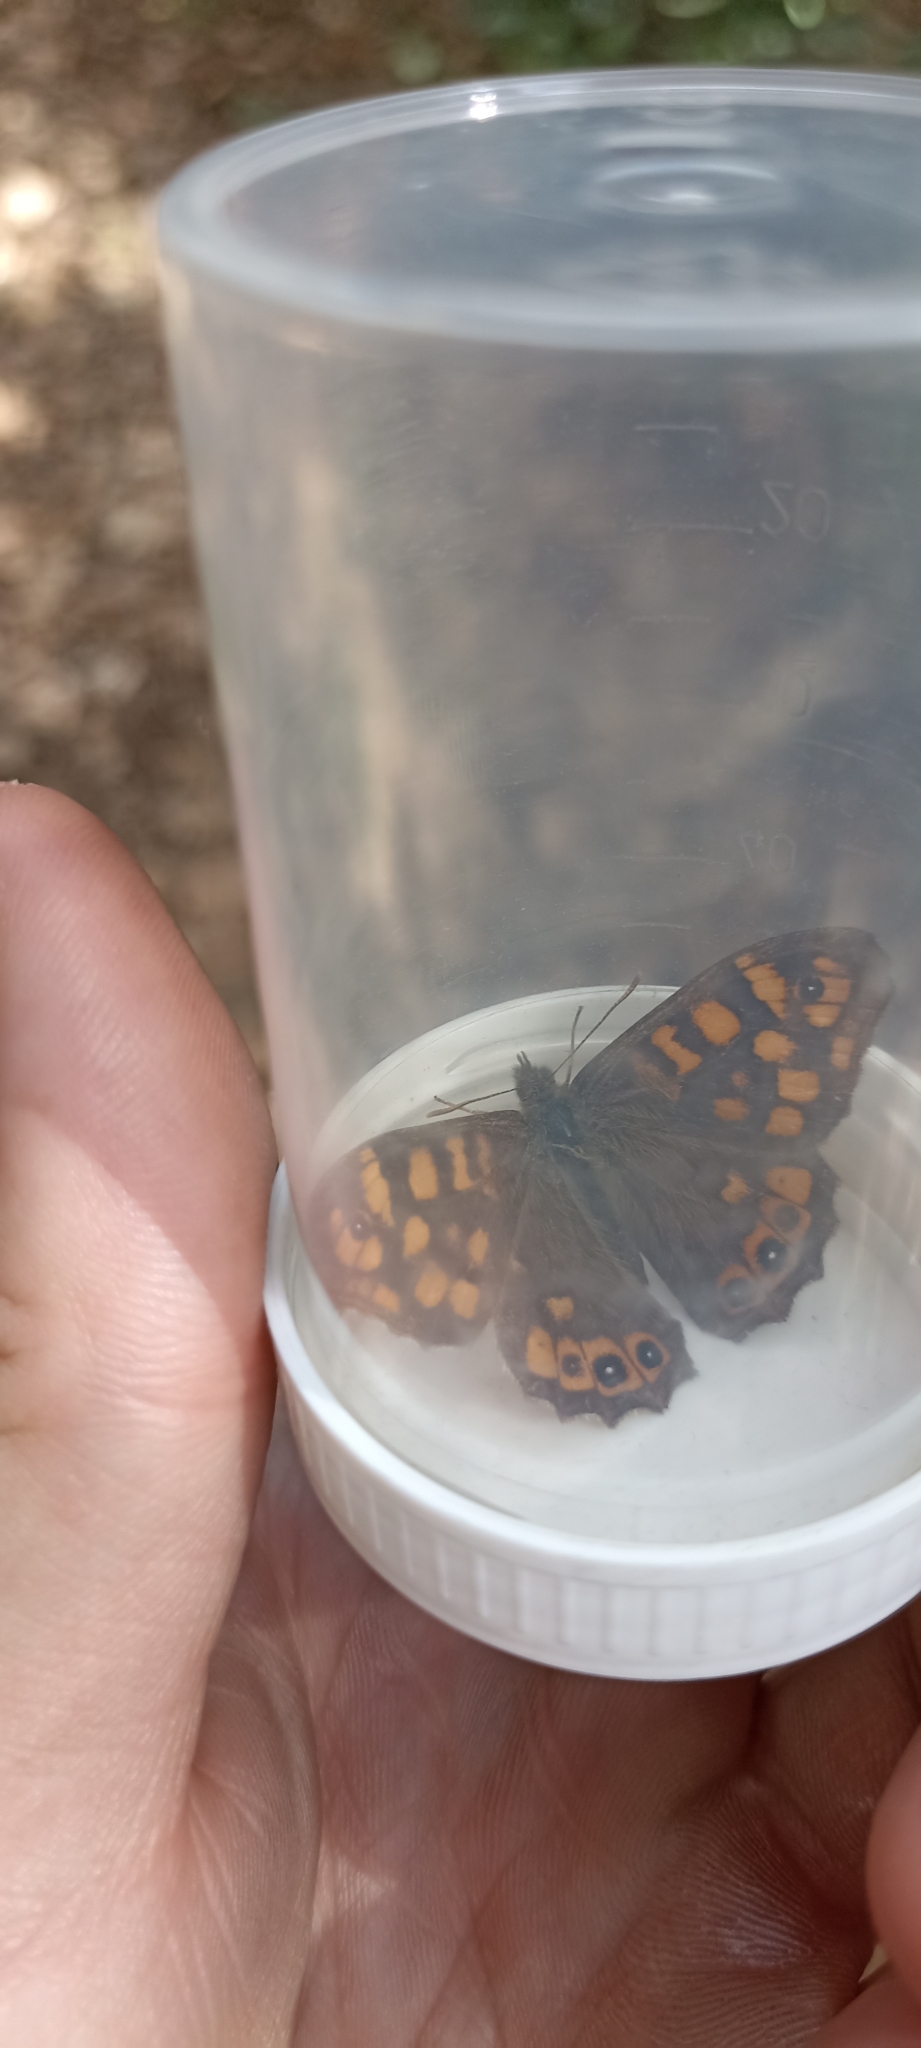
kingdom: Animalia
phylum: Arthropoda
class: Insecta
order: Lepidoptera
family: Nymphalidae
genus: Pararge
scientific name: Pararge aegeria
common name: Speckled wood
